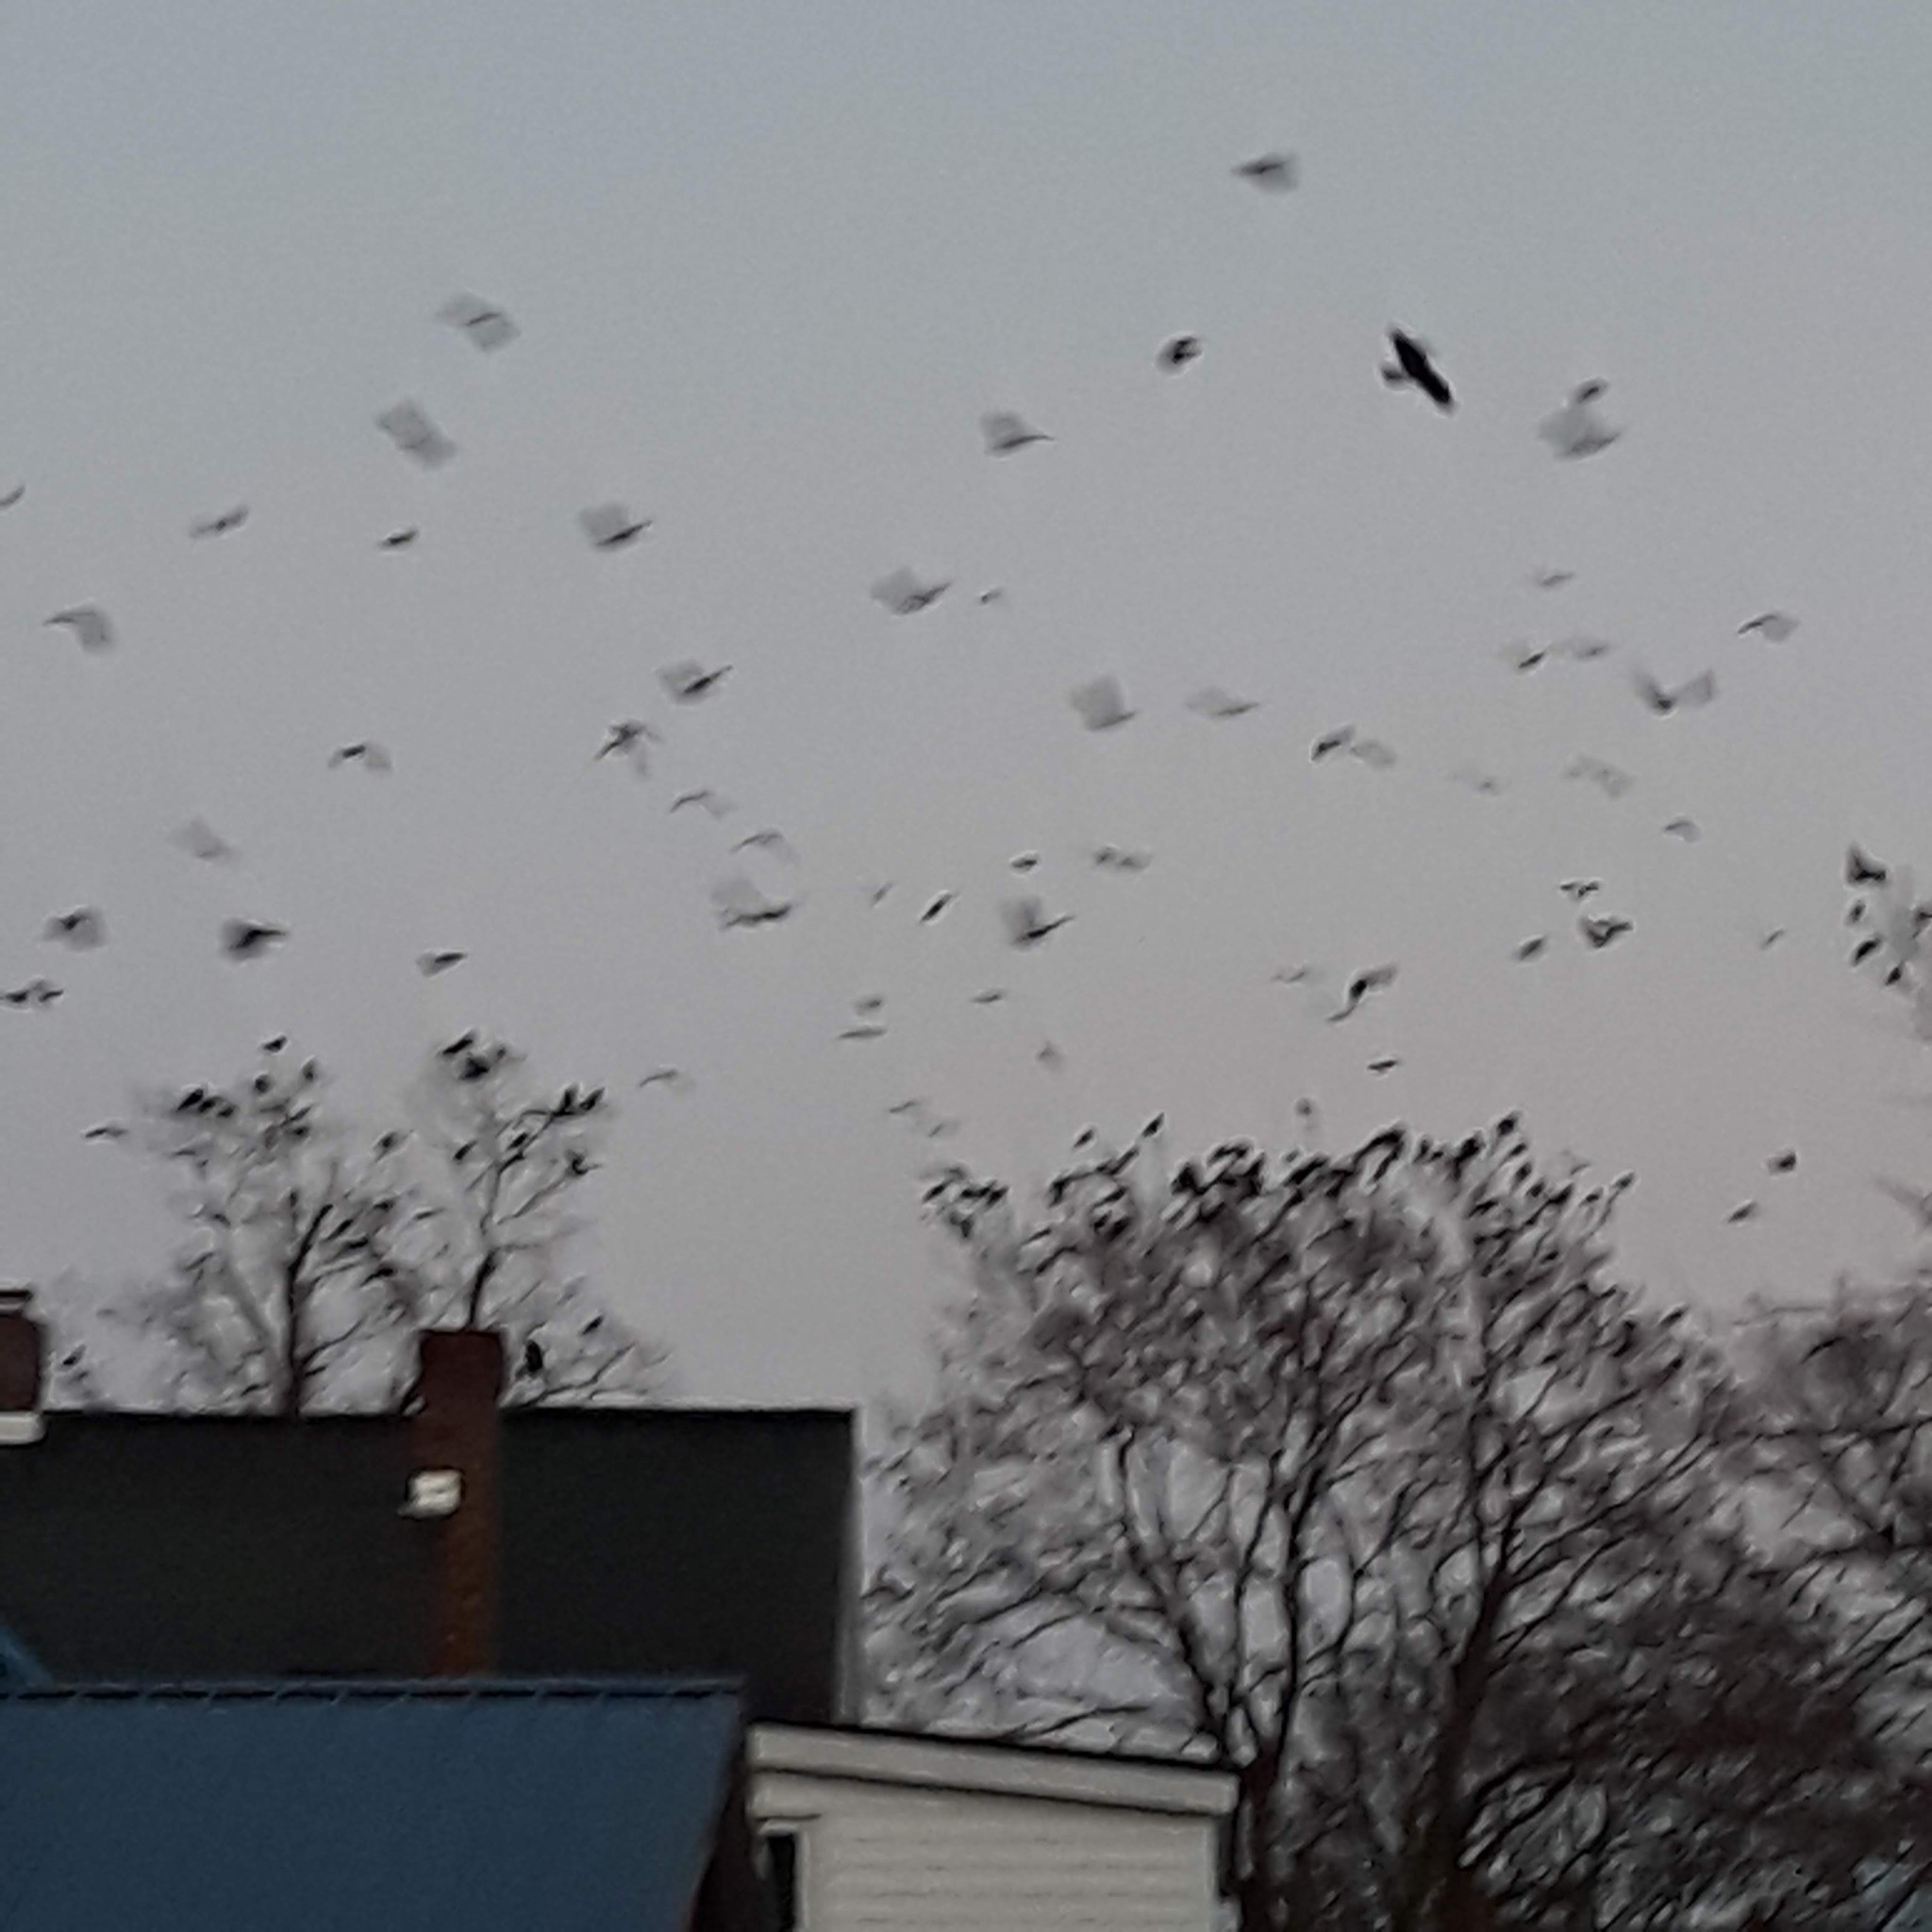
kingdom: Animalia
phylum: Chordata
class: Aves
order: Passeriformes
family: Corvidae
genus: Corvus
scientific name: Corvus brachyrhynchos
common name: American crow
